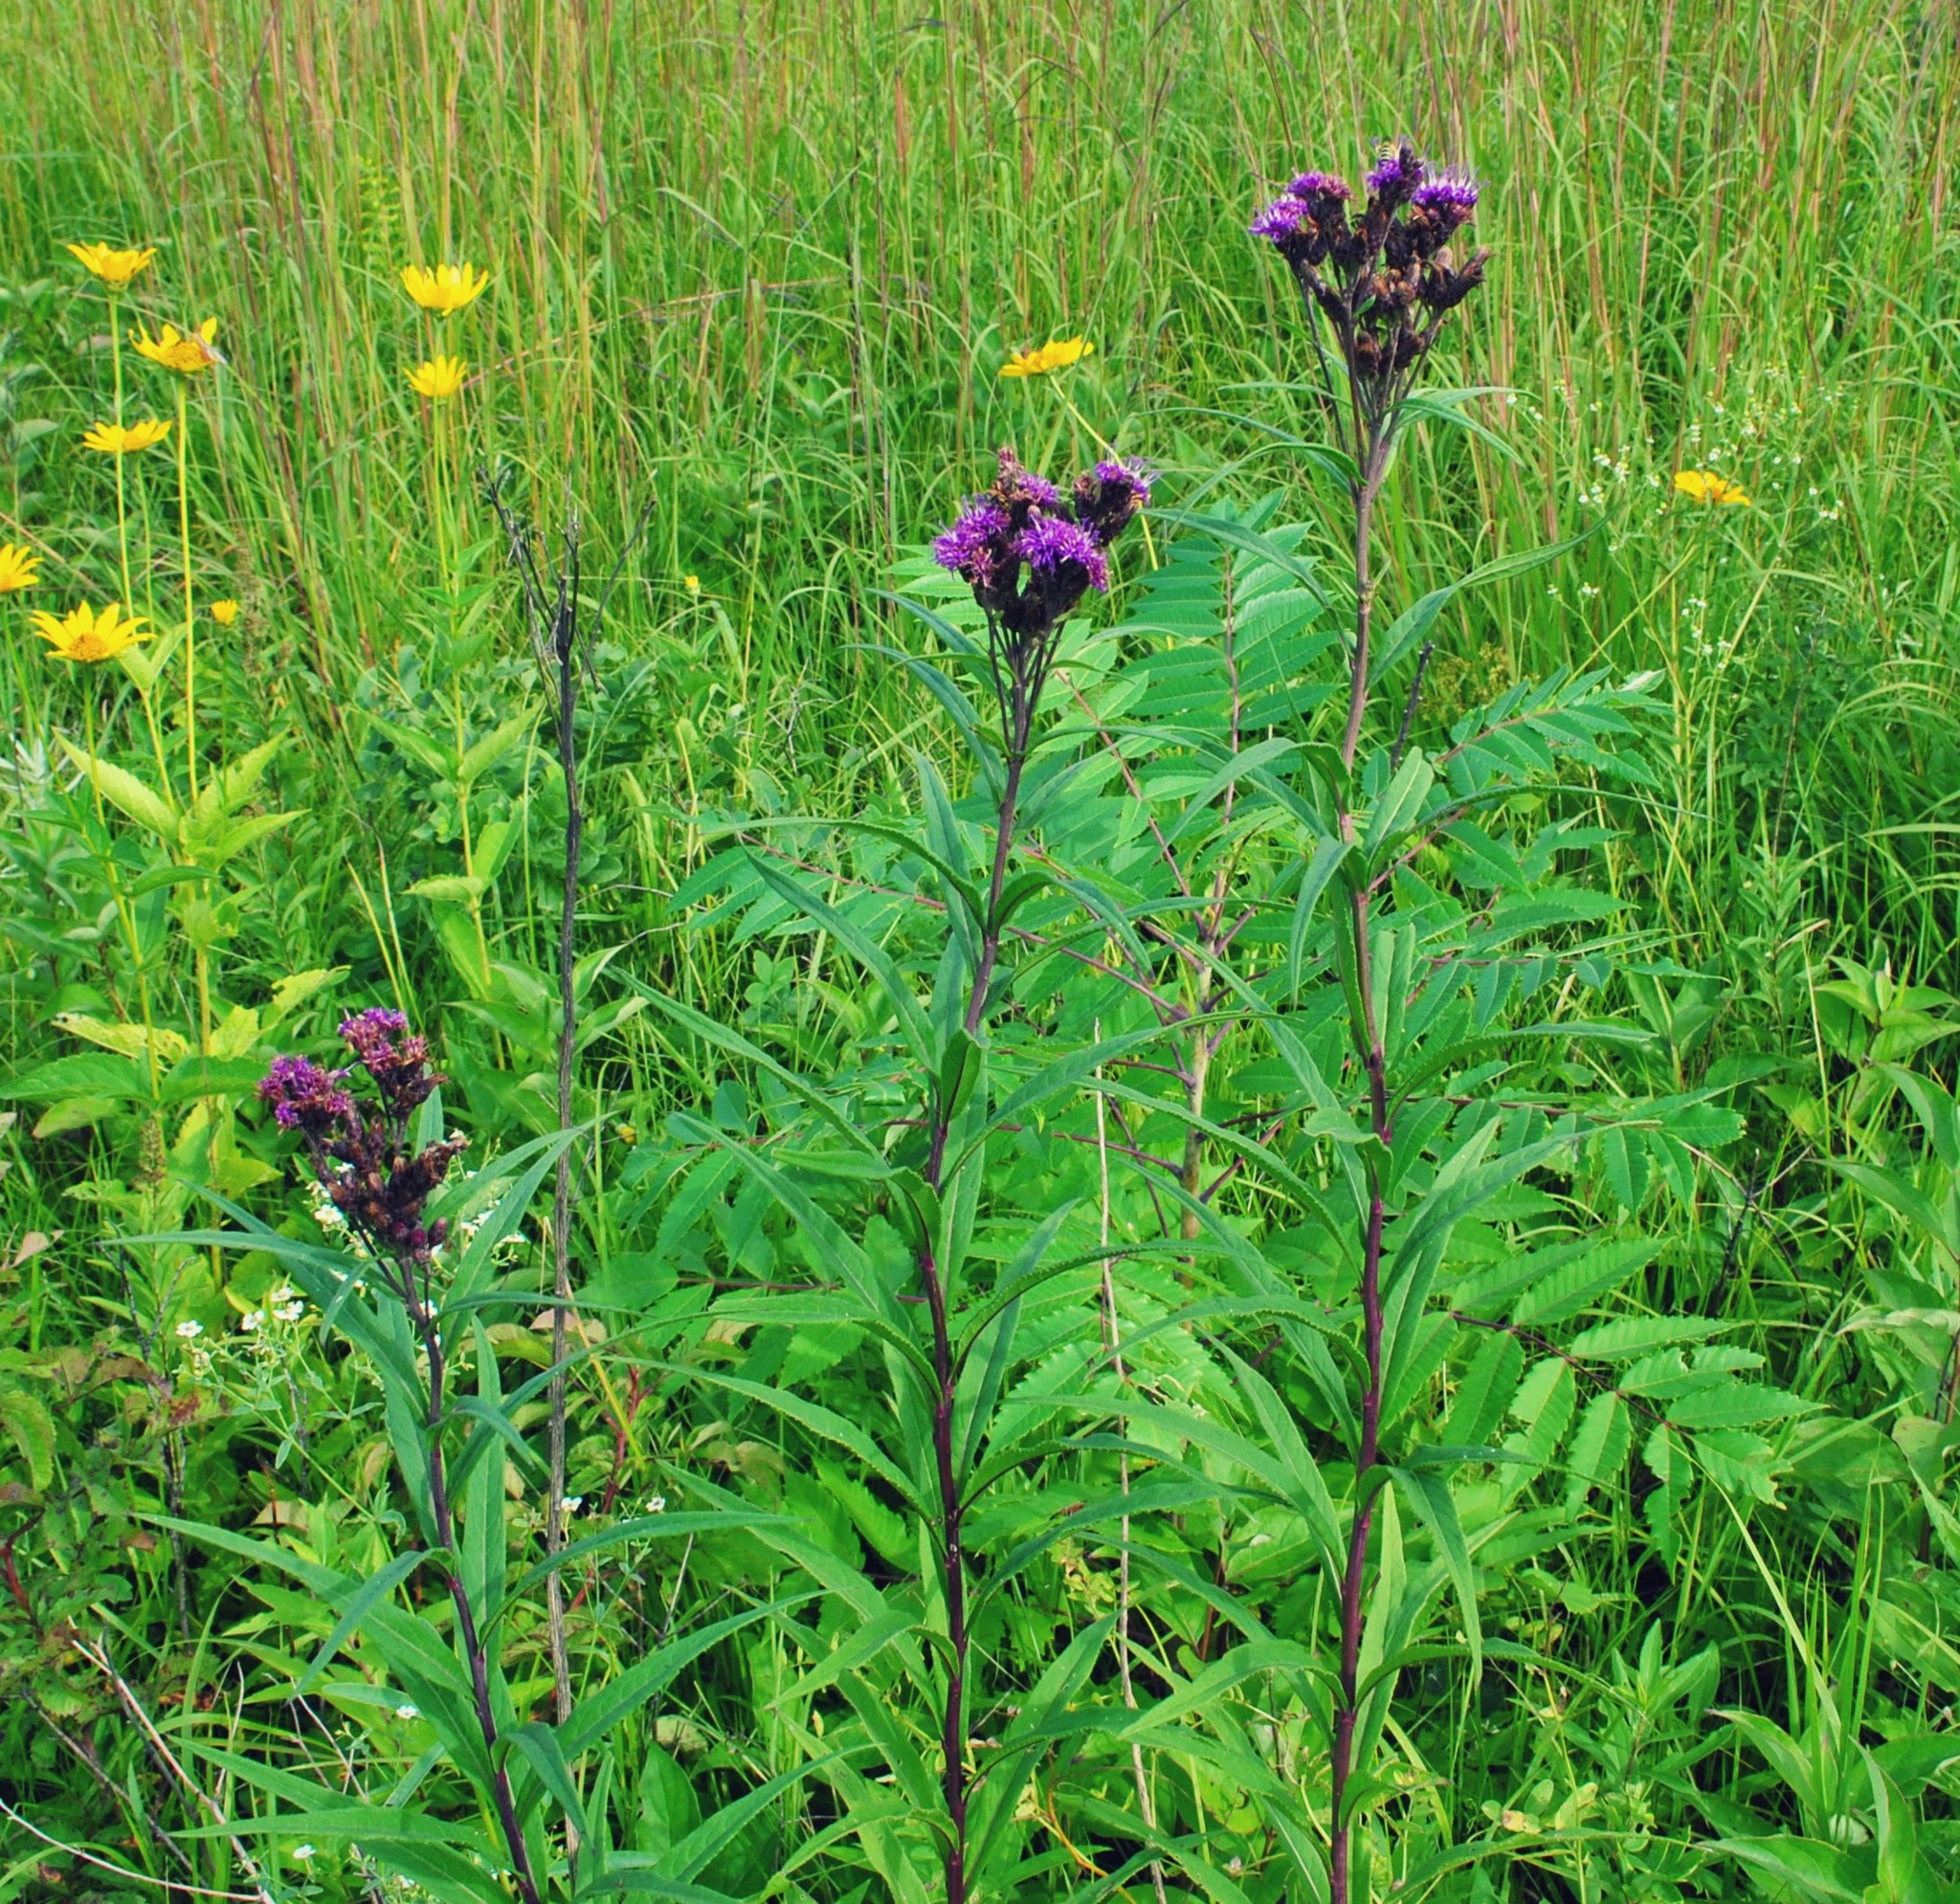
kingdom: Plantae
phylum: Tracheophyta
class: Magnoliopsida
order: Asterales
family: Asteraceae
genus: Vernonia
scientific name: Vernonia fasciculata
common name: Fascicled ironweed
